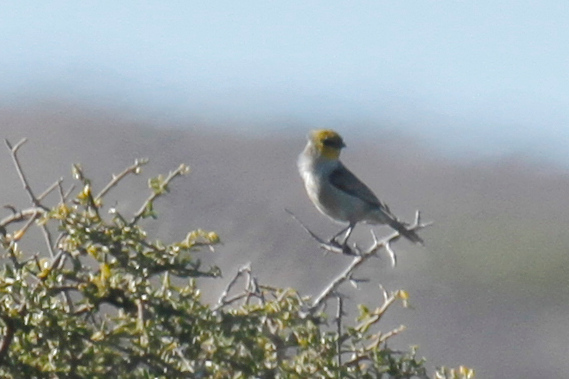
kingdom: Animalia
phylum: Chordata
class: Aves
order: Passeriformes
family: Remizidae
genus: Auriparus
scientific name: Auriparus flaviceps
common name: Verdin
